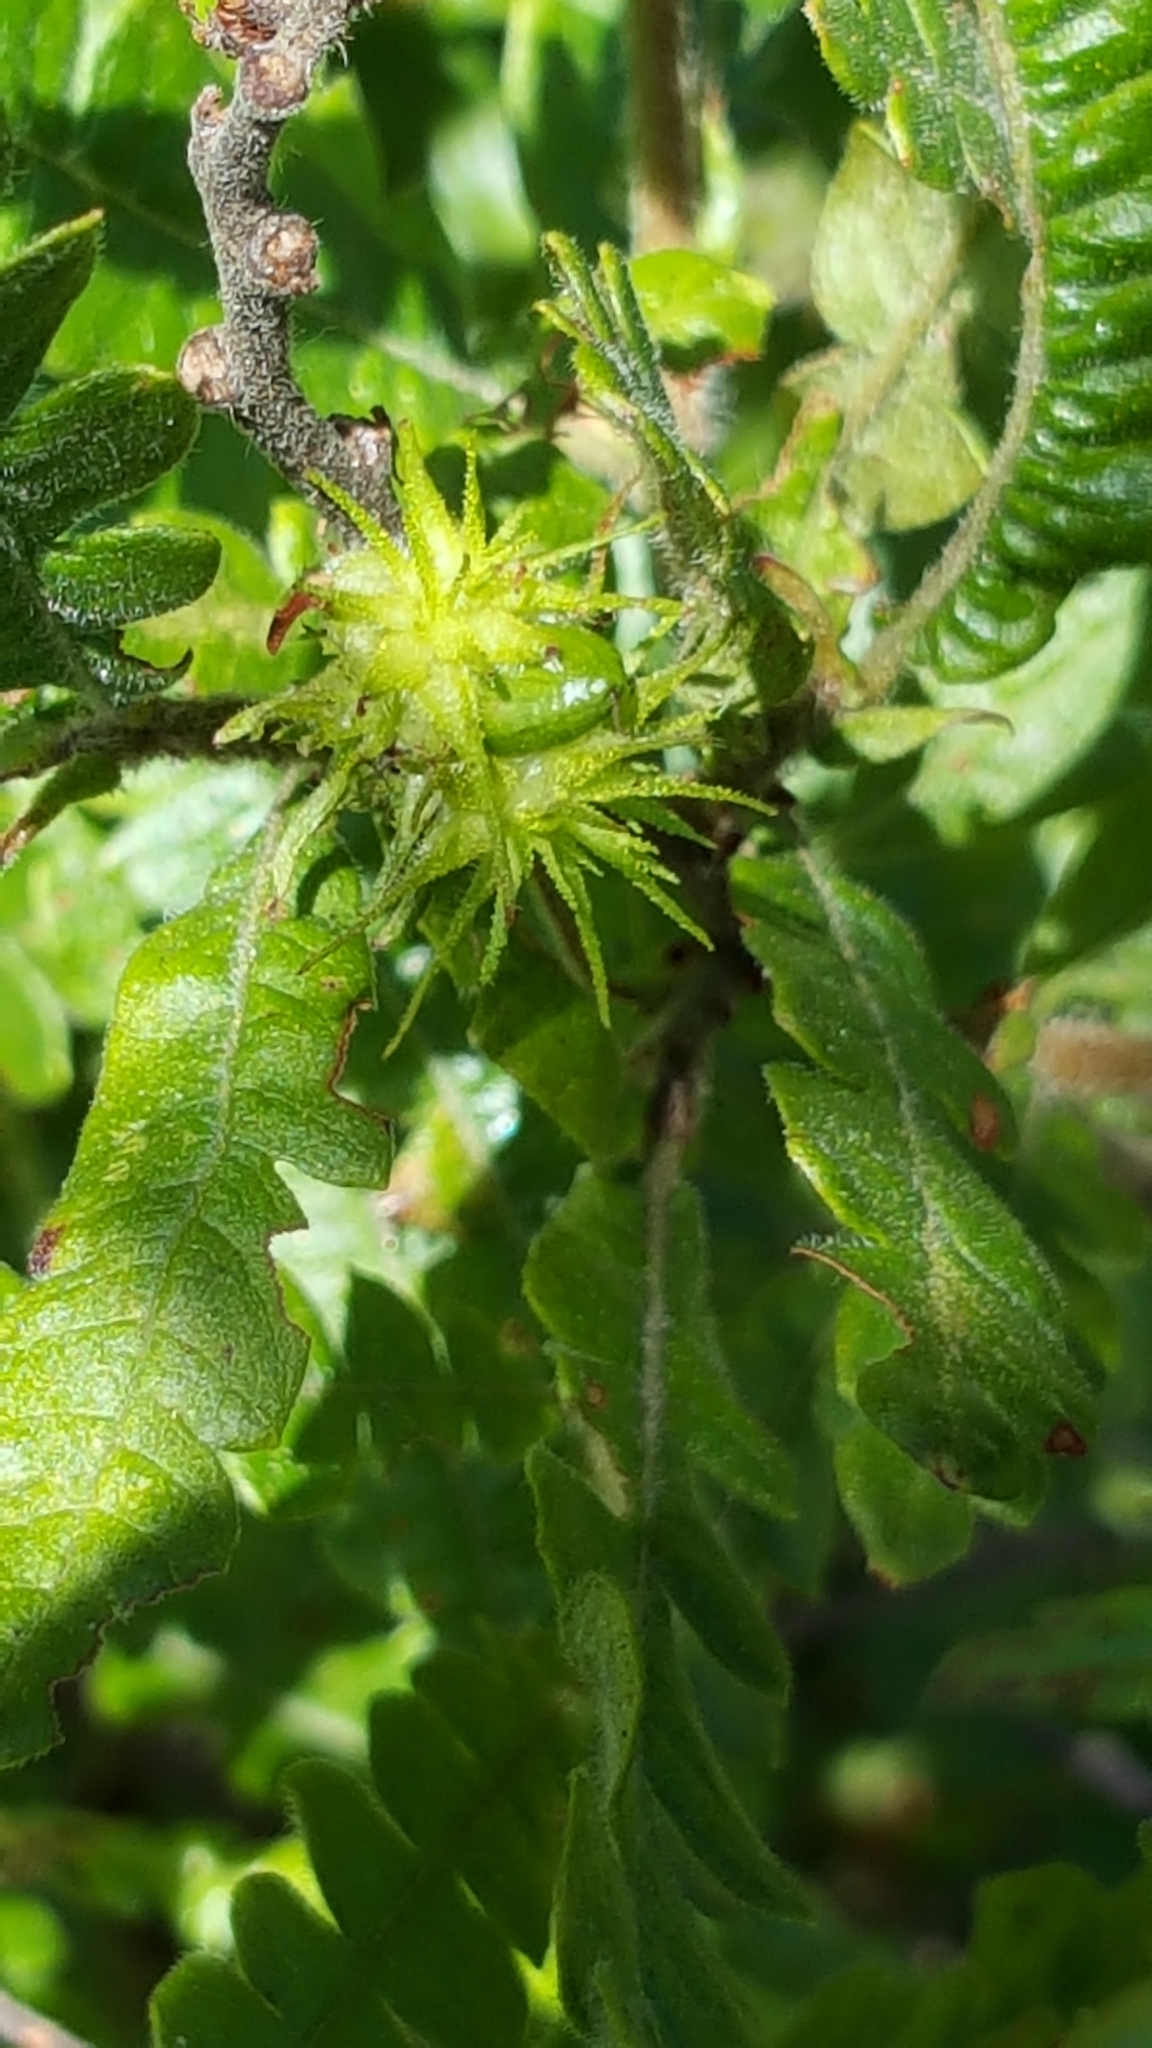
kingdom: Plantae
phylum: Tracheophyta
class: Magnoliopsida
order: Fagales
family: Myricaceae
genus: Comptonia
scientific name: Comptonia peregrina
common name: Sweet-fern
